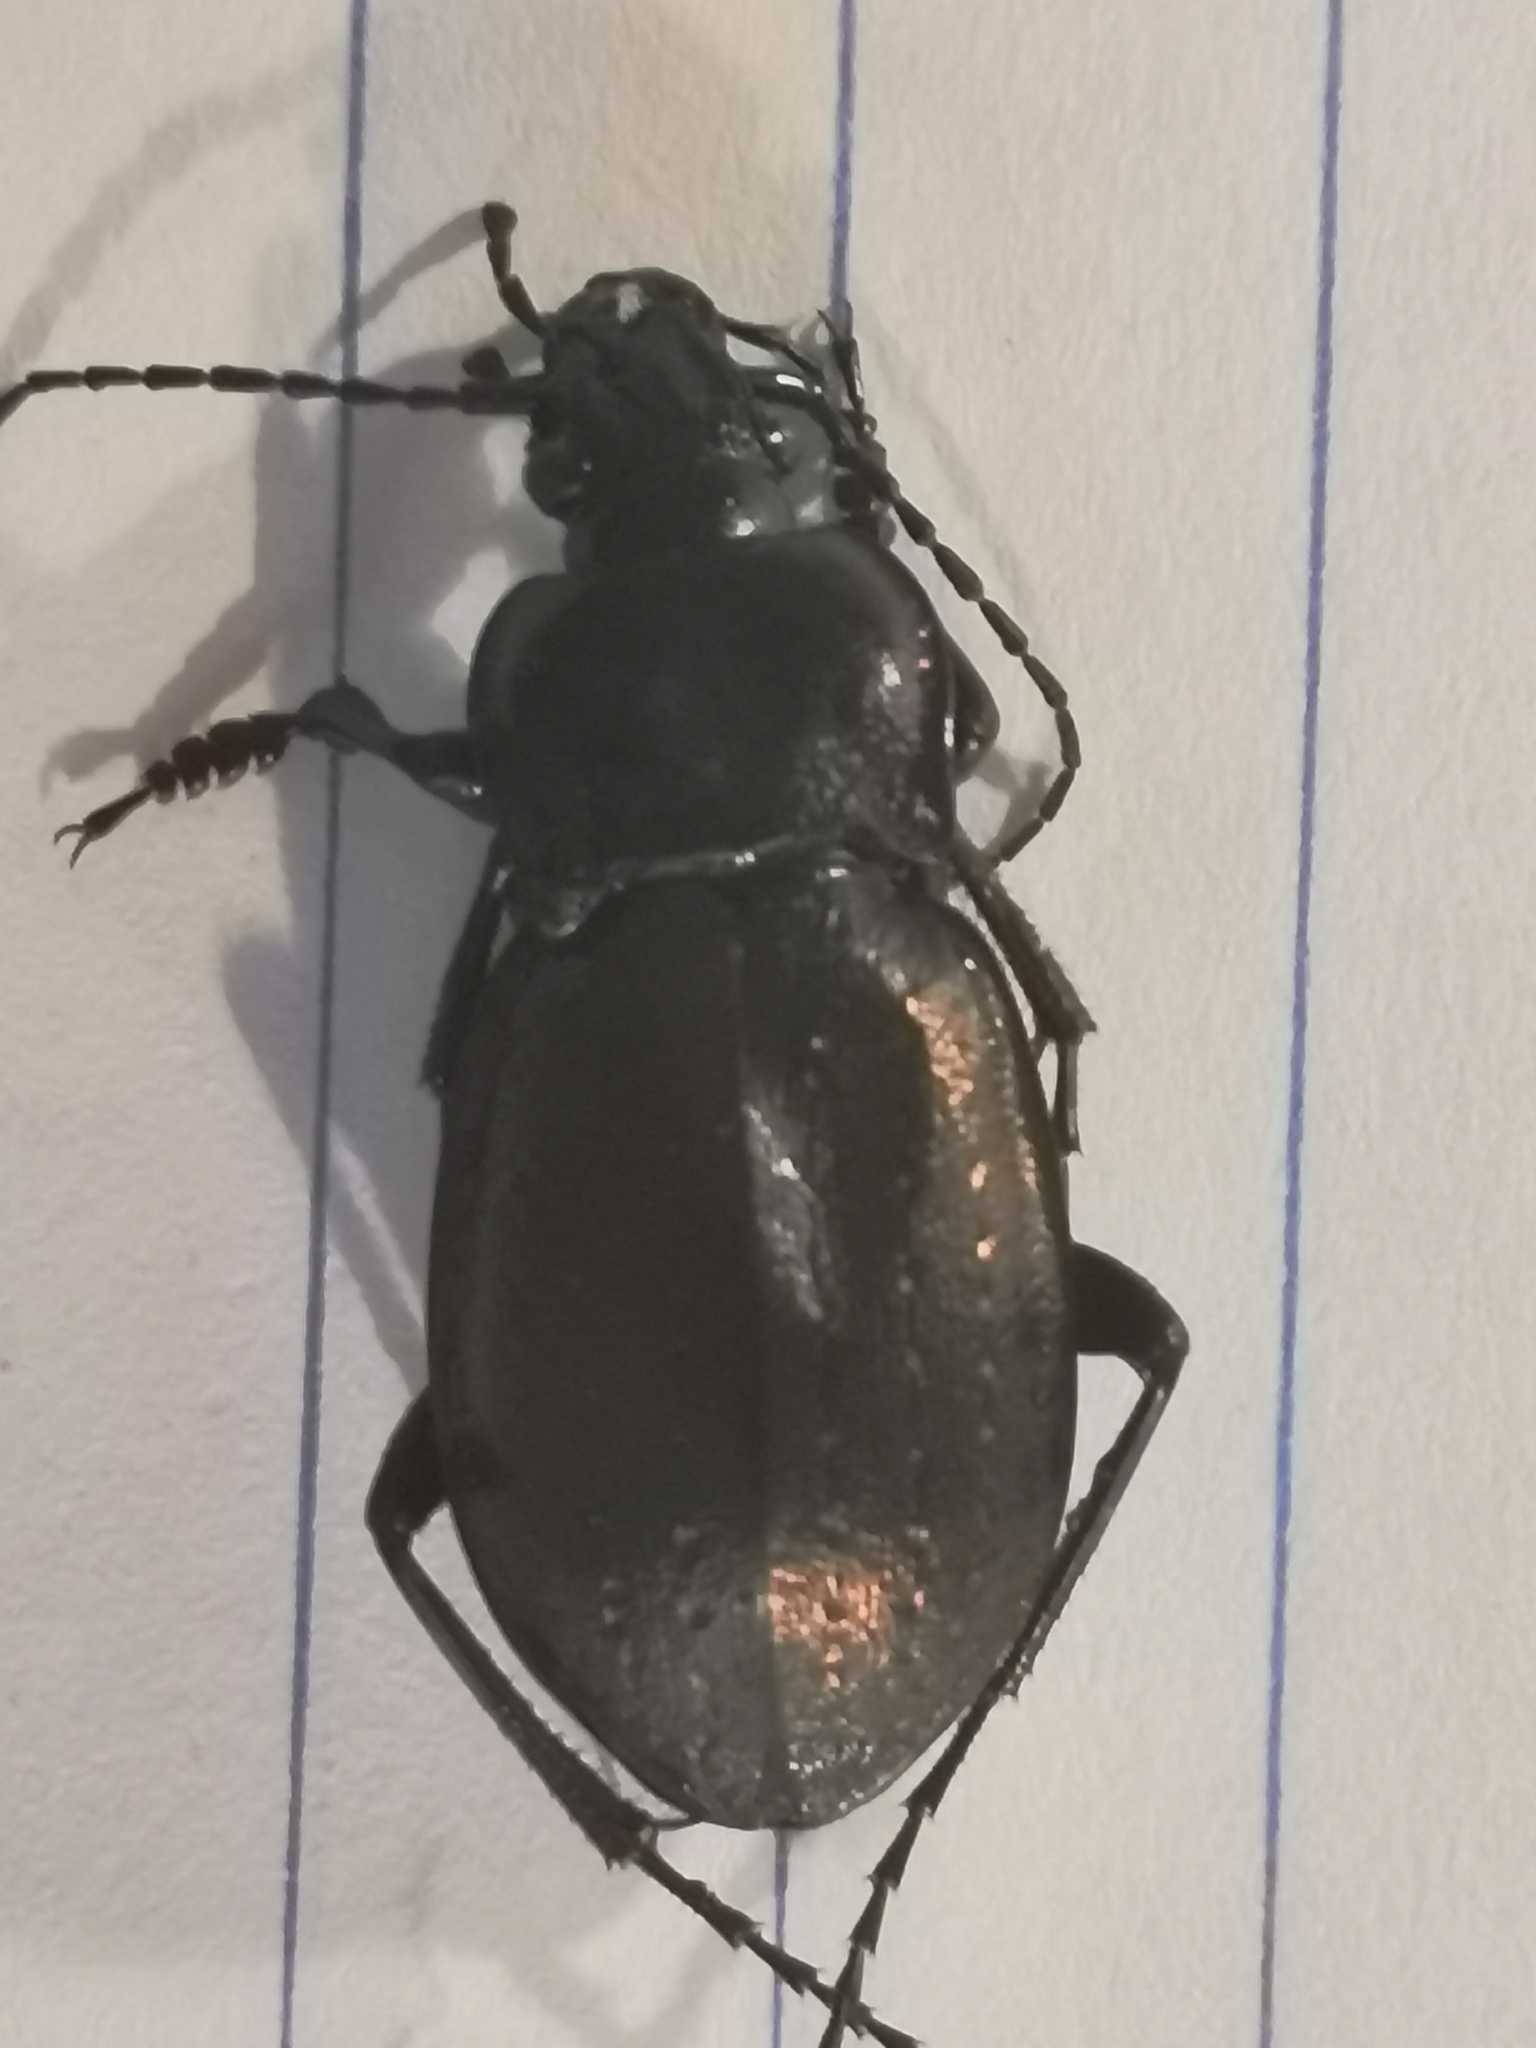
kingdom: Animalia
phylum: Arthropoda
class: Insecta
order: Coleoptera
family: Carabidae
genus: Carabus
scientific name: Carabus nemoralis
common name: European ground beetle
